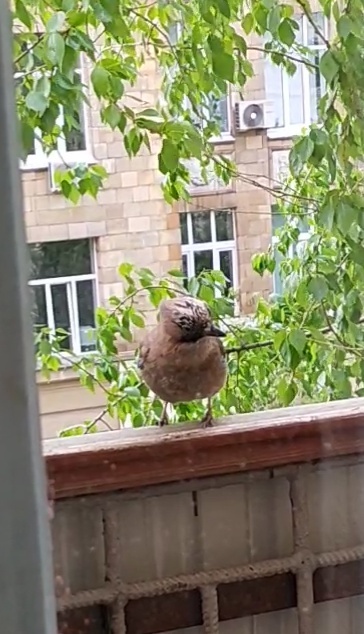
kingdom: Animalia
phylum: Chordata
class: Aves
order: Passeriformes
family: Corvidae
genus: Garrulus
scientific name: Garrulus glandarius
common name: Eurasian jay
